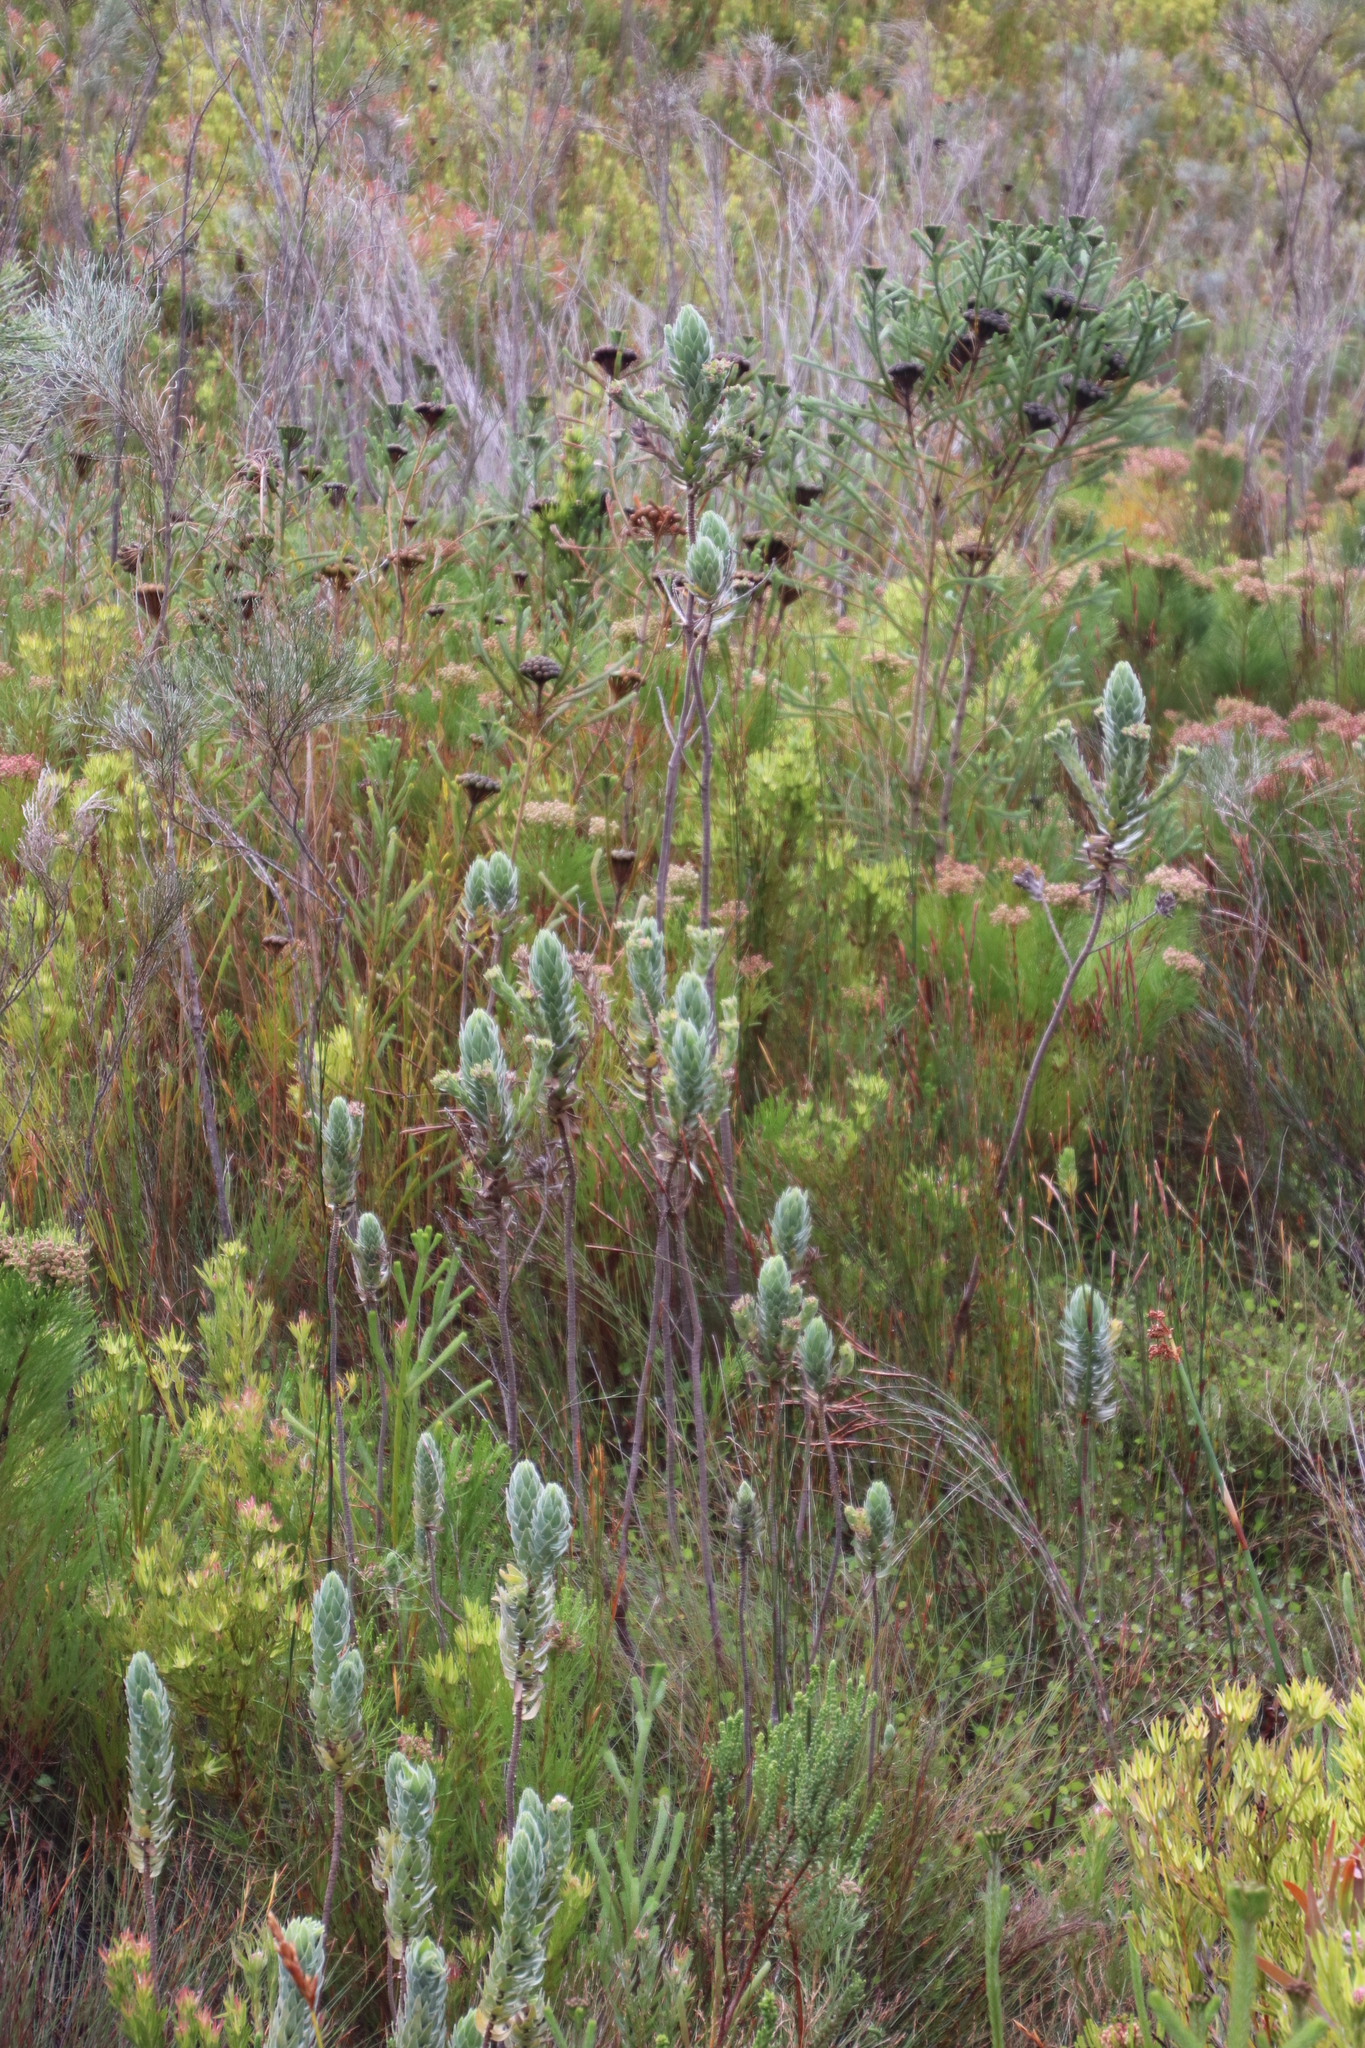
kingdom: Plantae
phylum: Tracheophyta
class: Magnoliopsida
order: Asterales
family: Asteraceae
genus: Osmitopsis
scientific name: Osmitopsis asteriscoides
